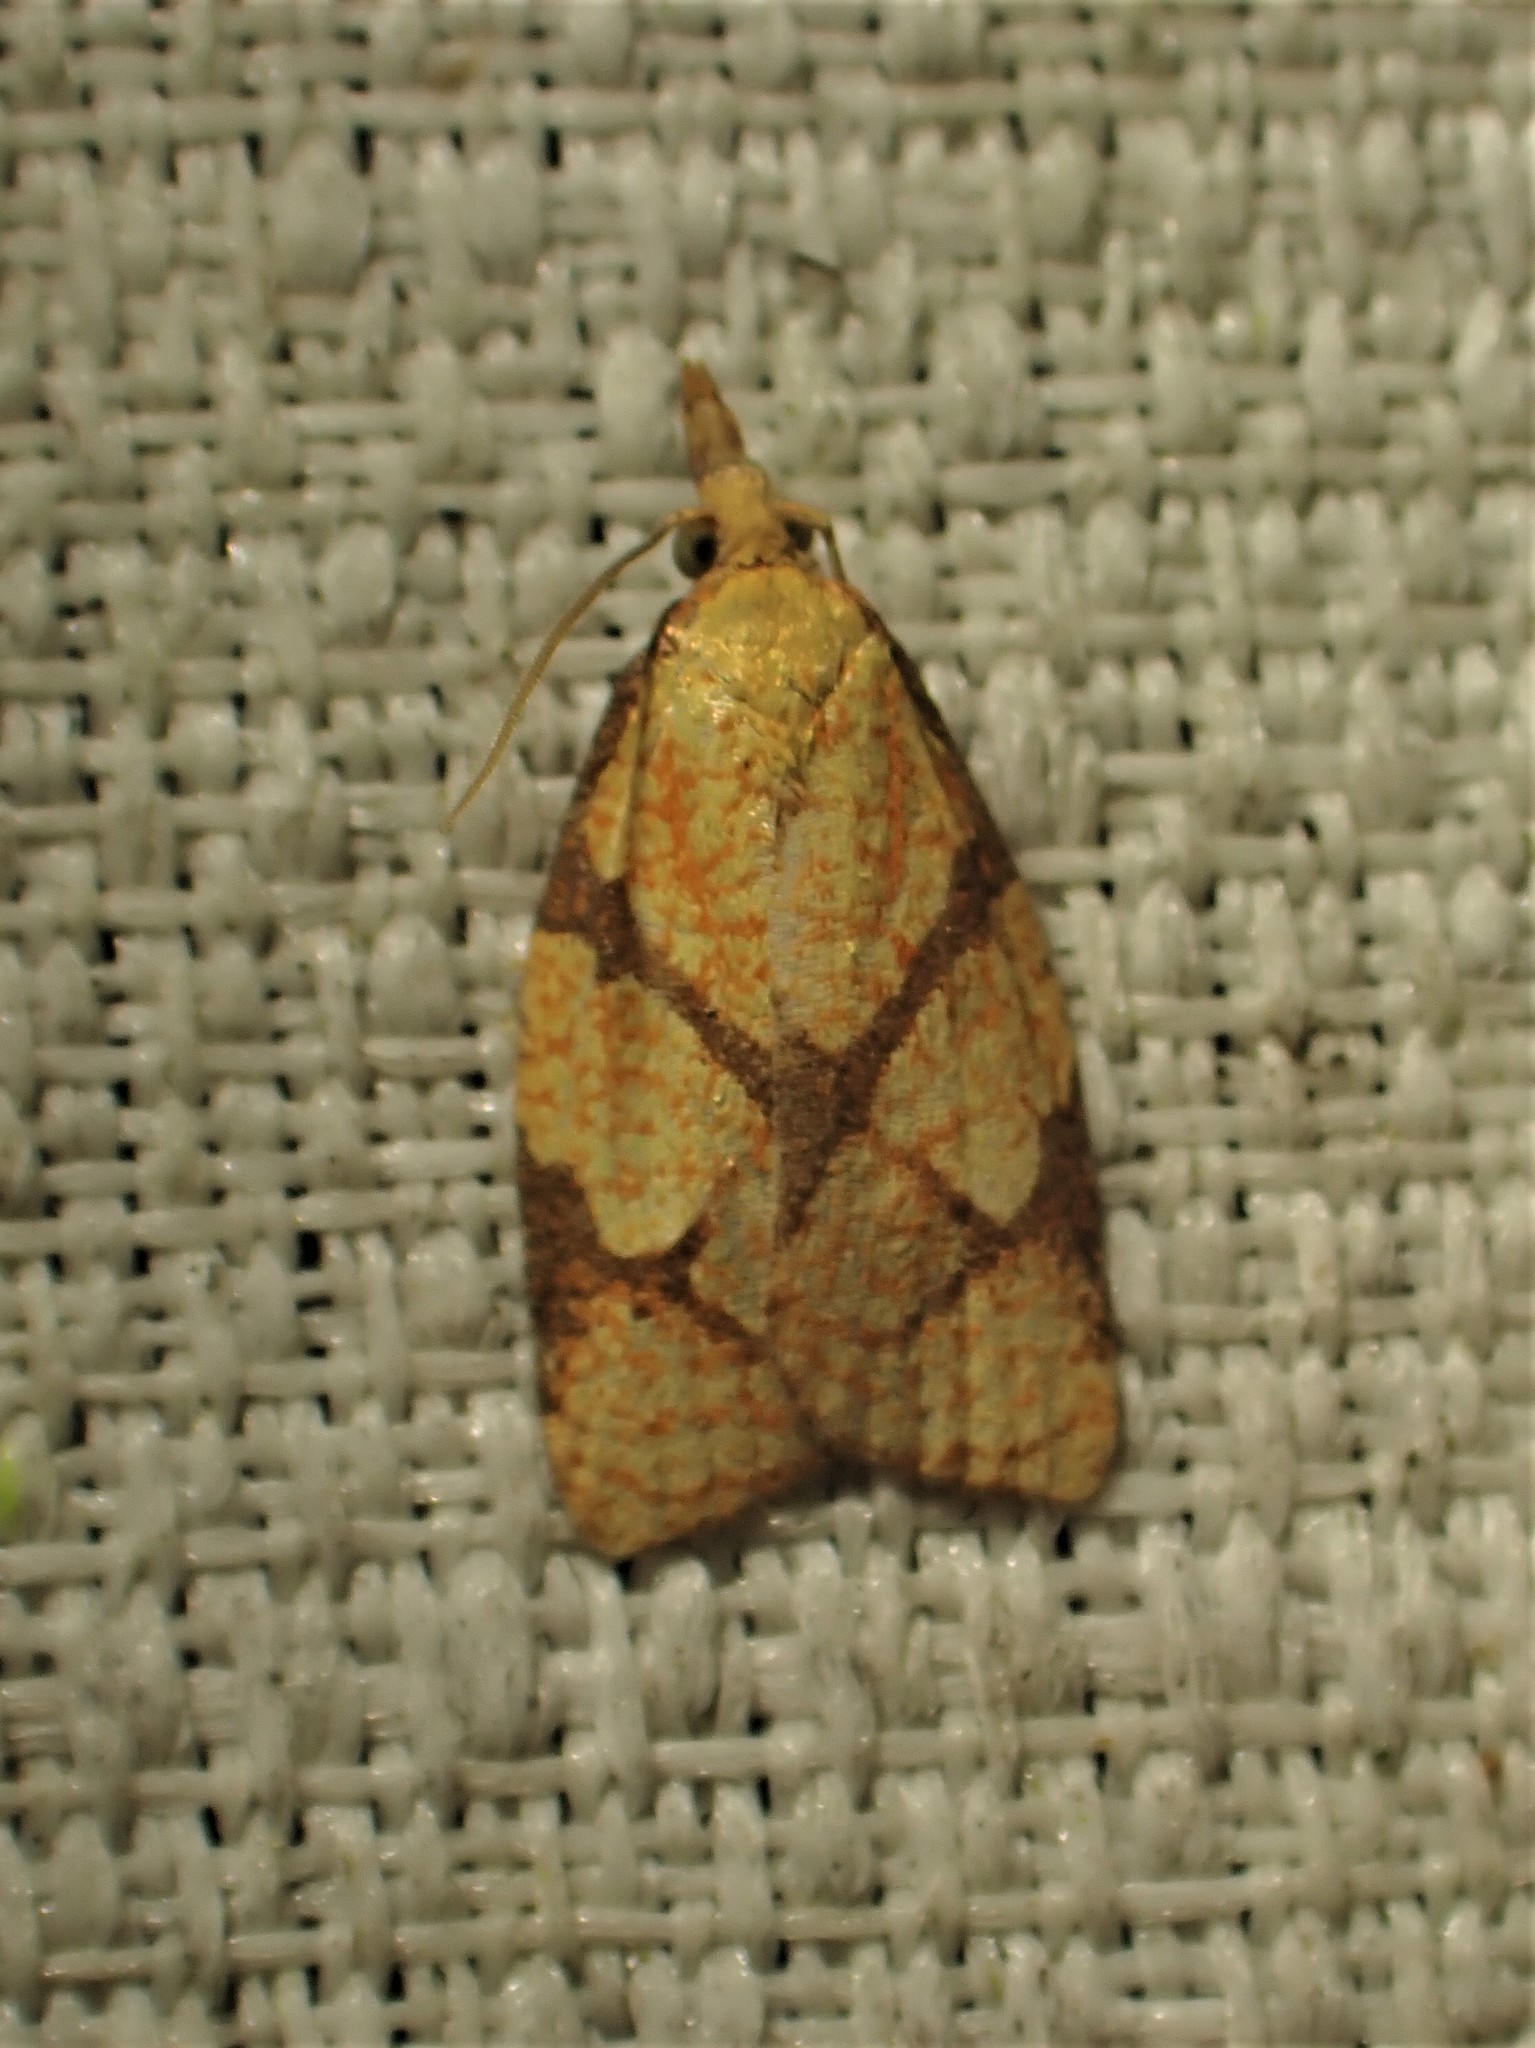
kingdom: Animalia
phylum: Arthropoda
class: Insecta
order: Lepidoptera
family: Tortricidae
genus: Cenopis
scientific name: Cenopis reticulatana
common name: Reticulated fruitworm moth
